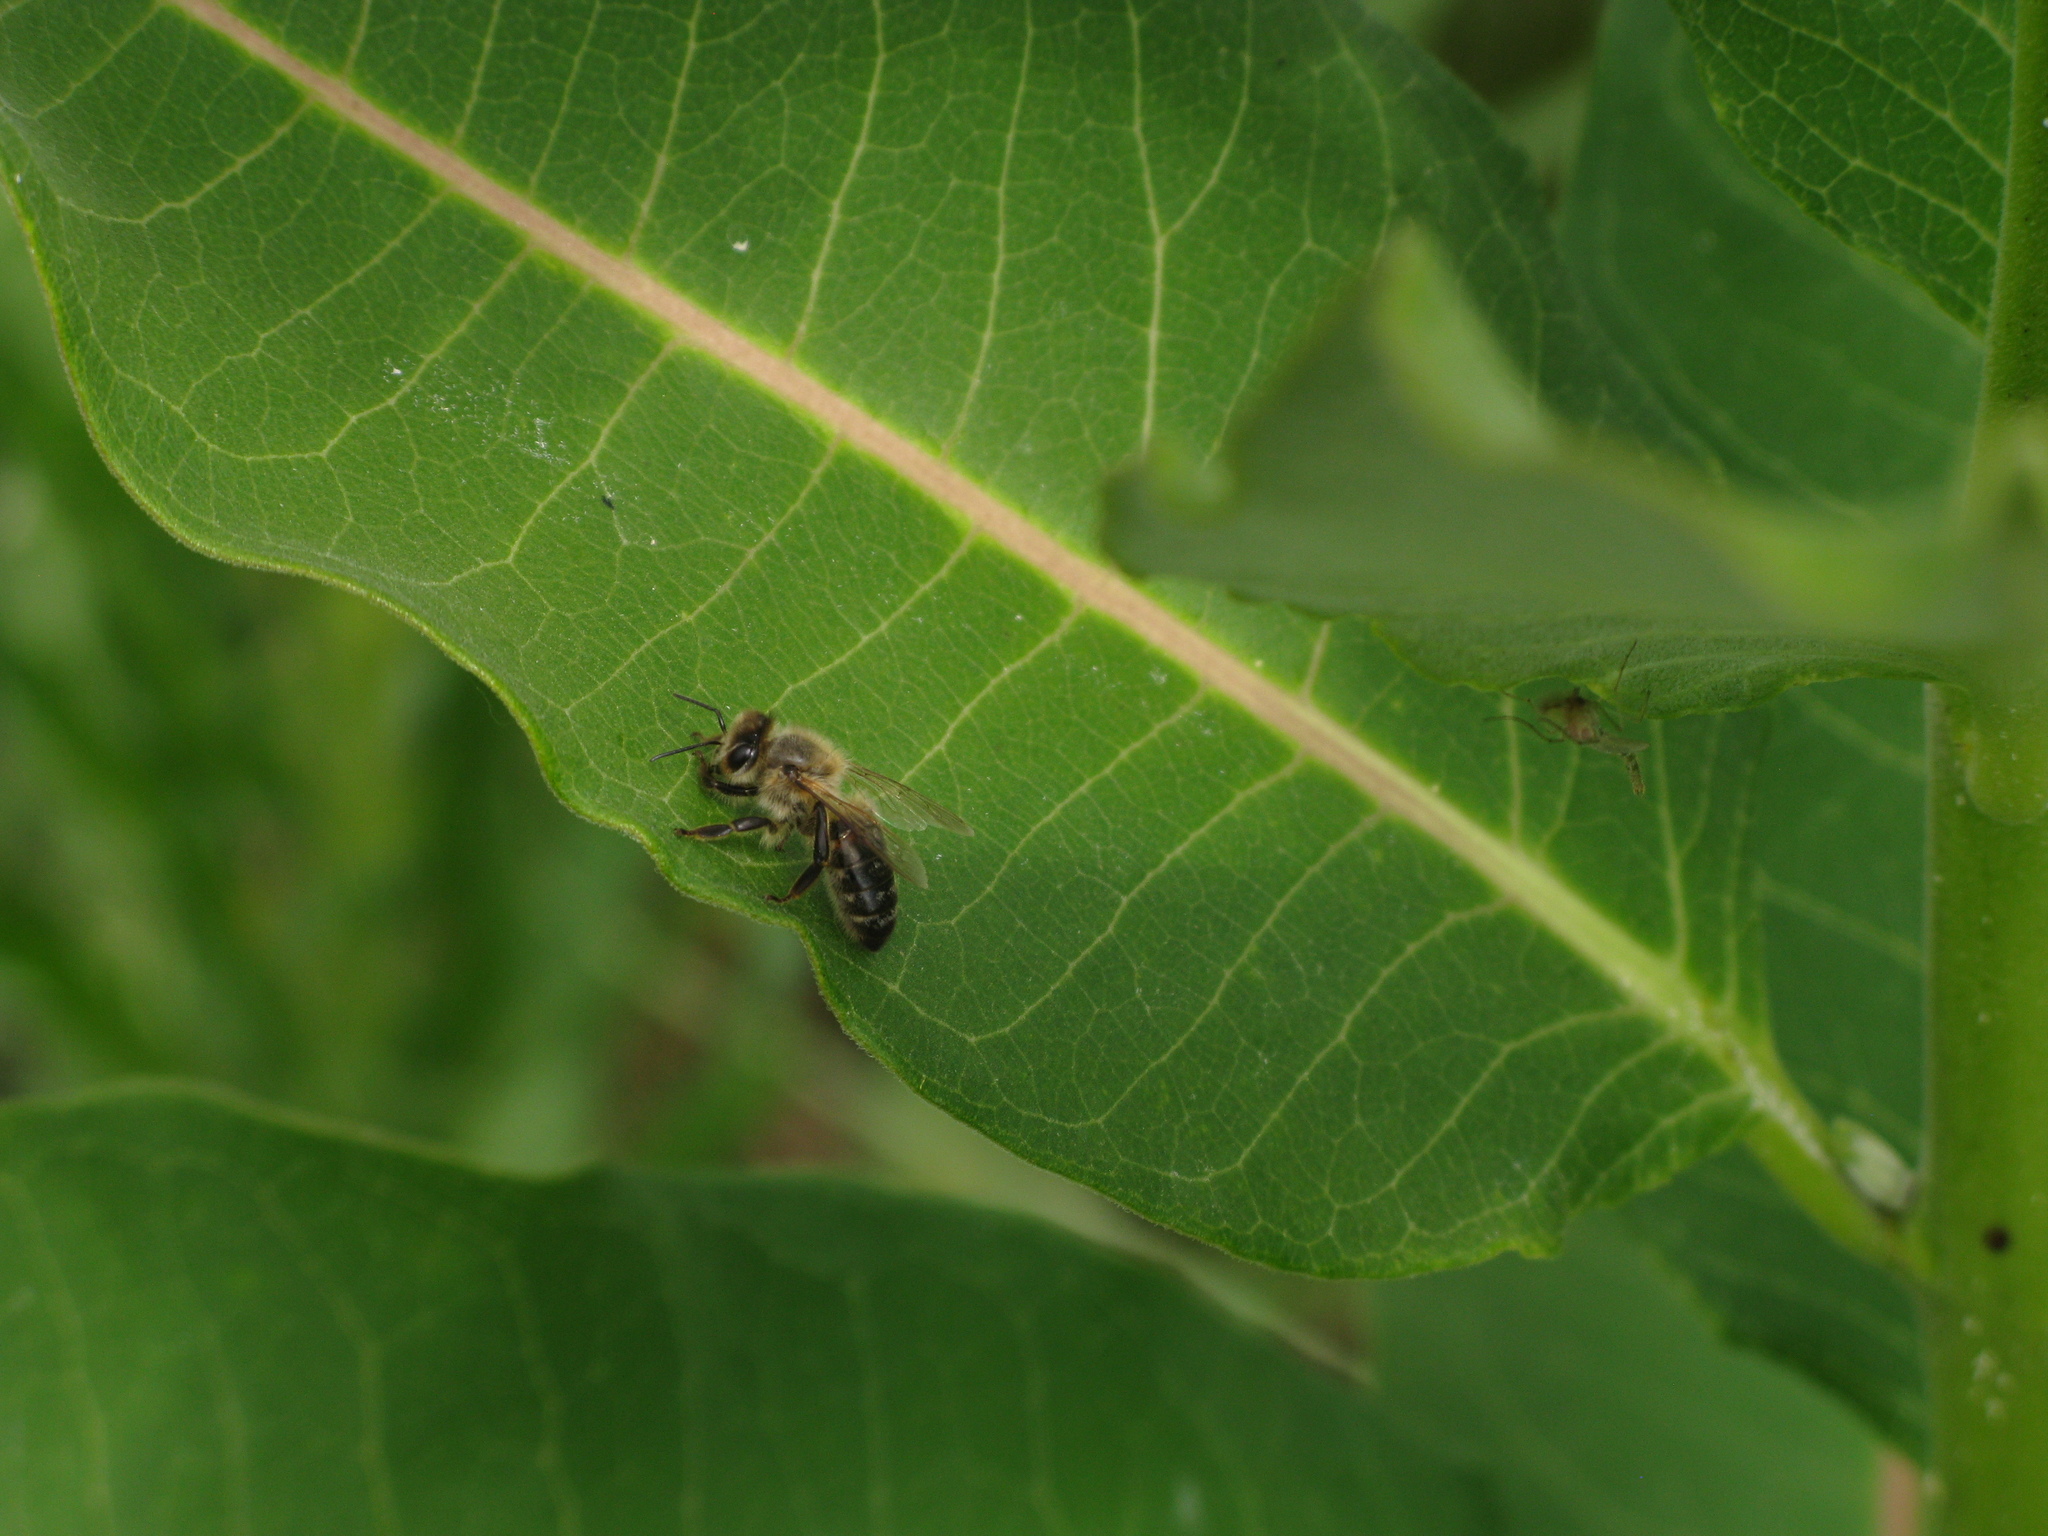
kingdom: Animalia
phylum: Arthropoda
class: Insecta
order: Hymenoptera
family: Apidae
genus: Apis
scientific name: Apis mellifera
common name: Honey bee
